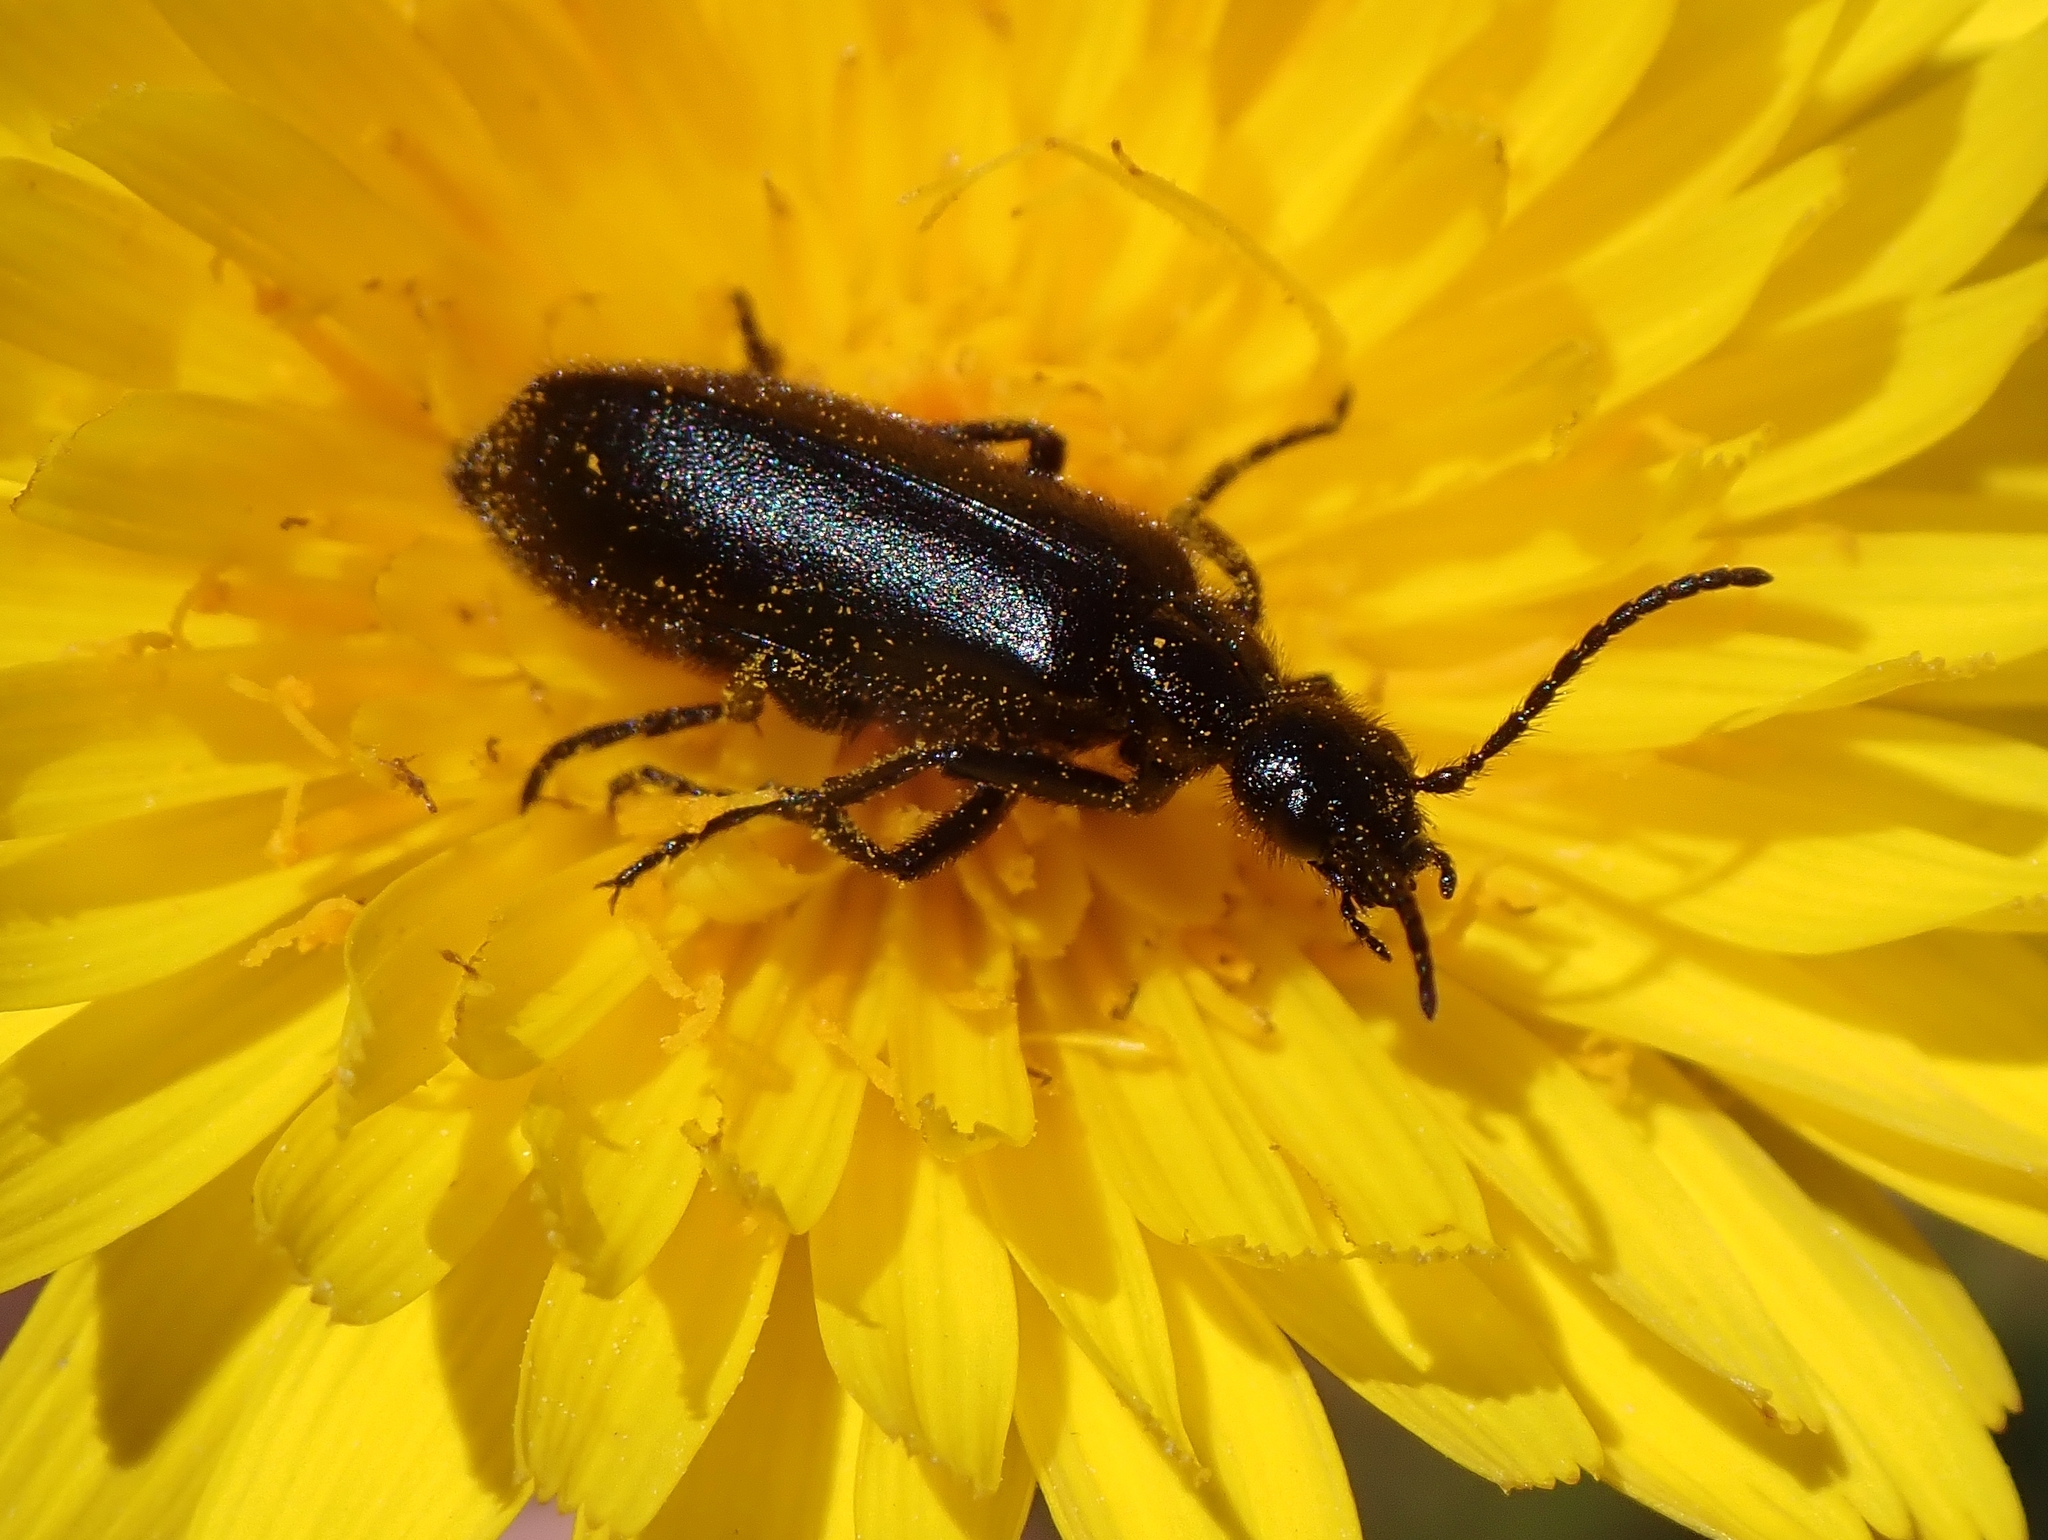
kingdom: Animalia
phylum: Arthropoda
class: Insecta
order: Coleoptera
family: Meloidae
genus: Epicauta
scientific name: Epicauta puncticollis
